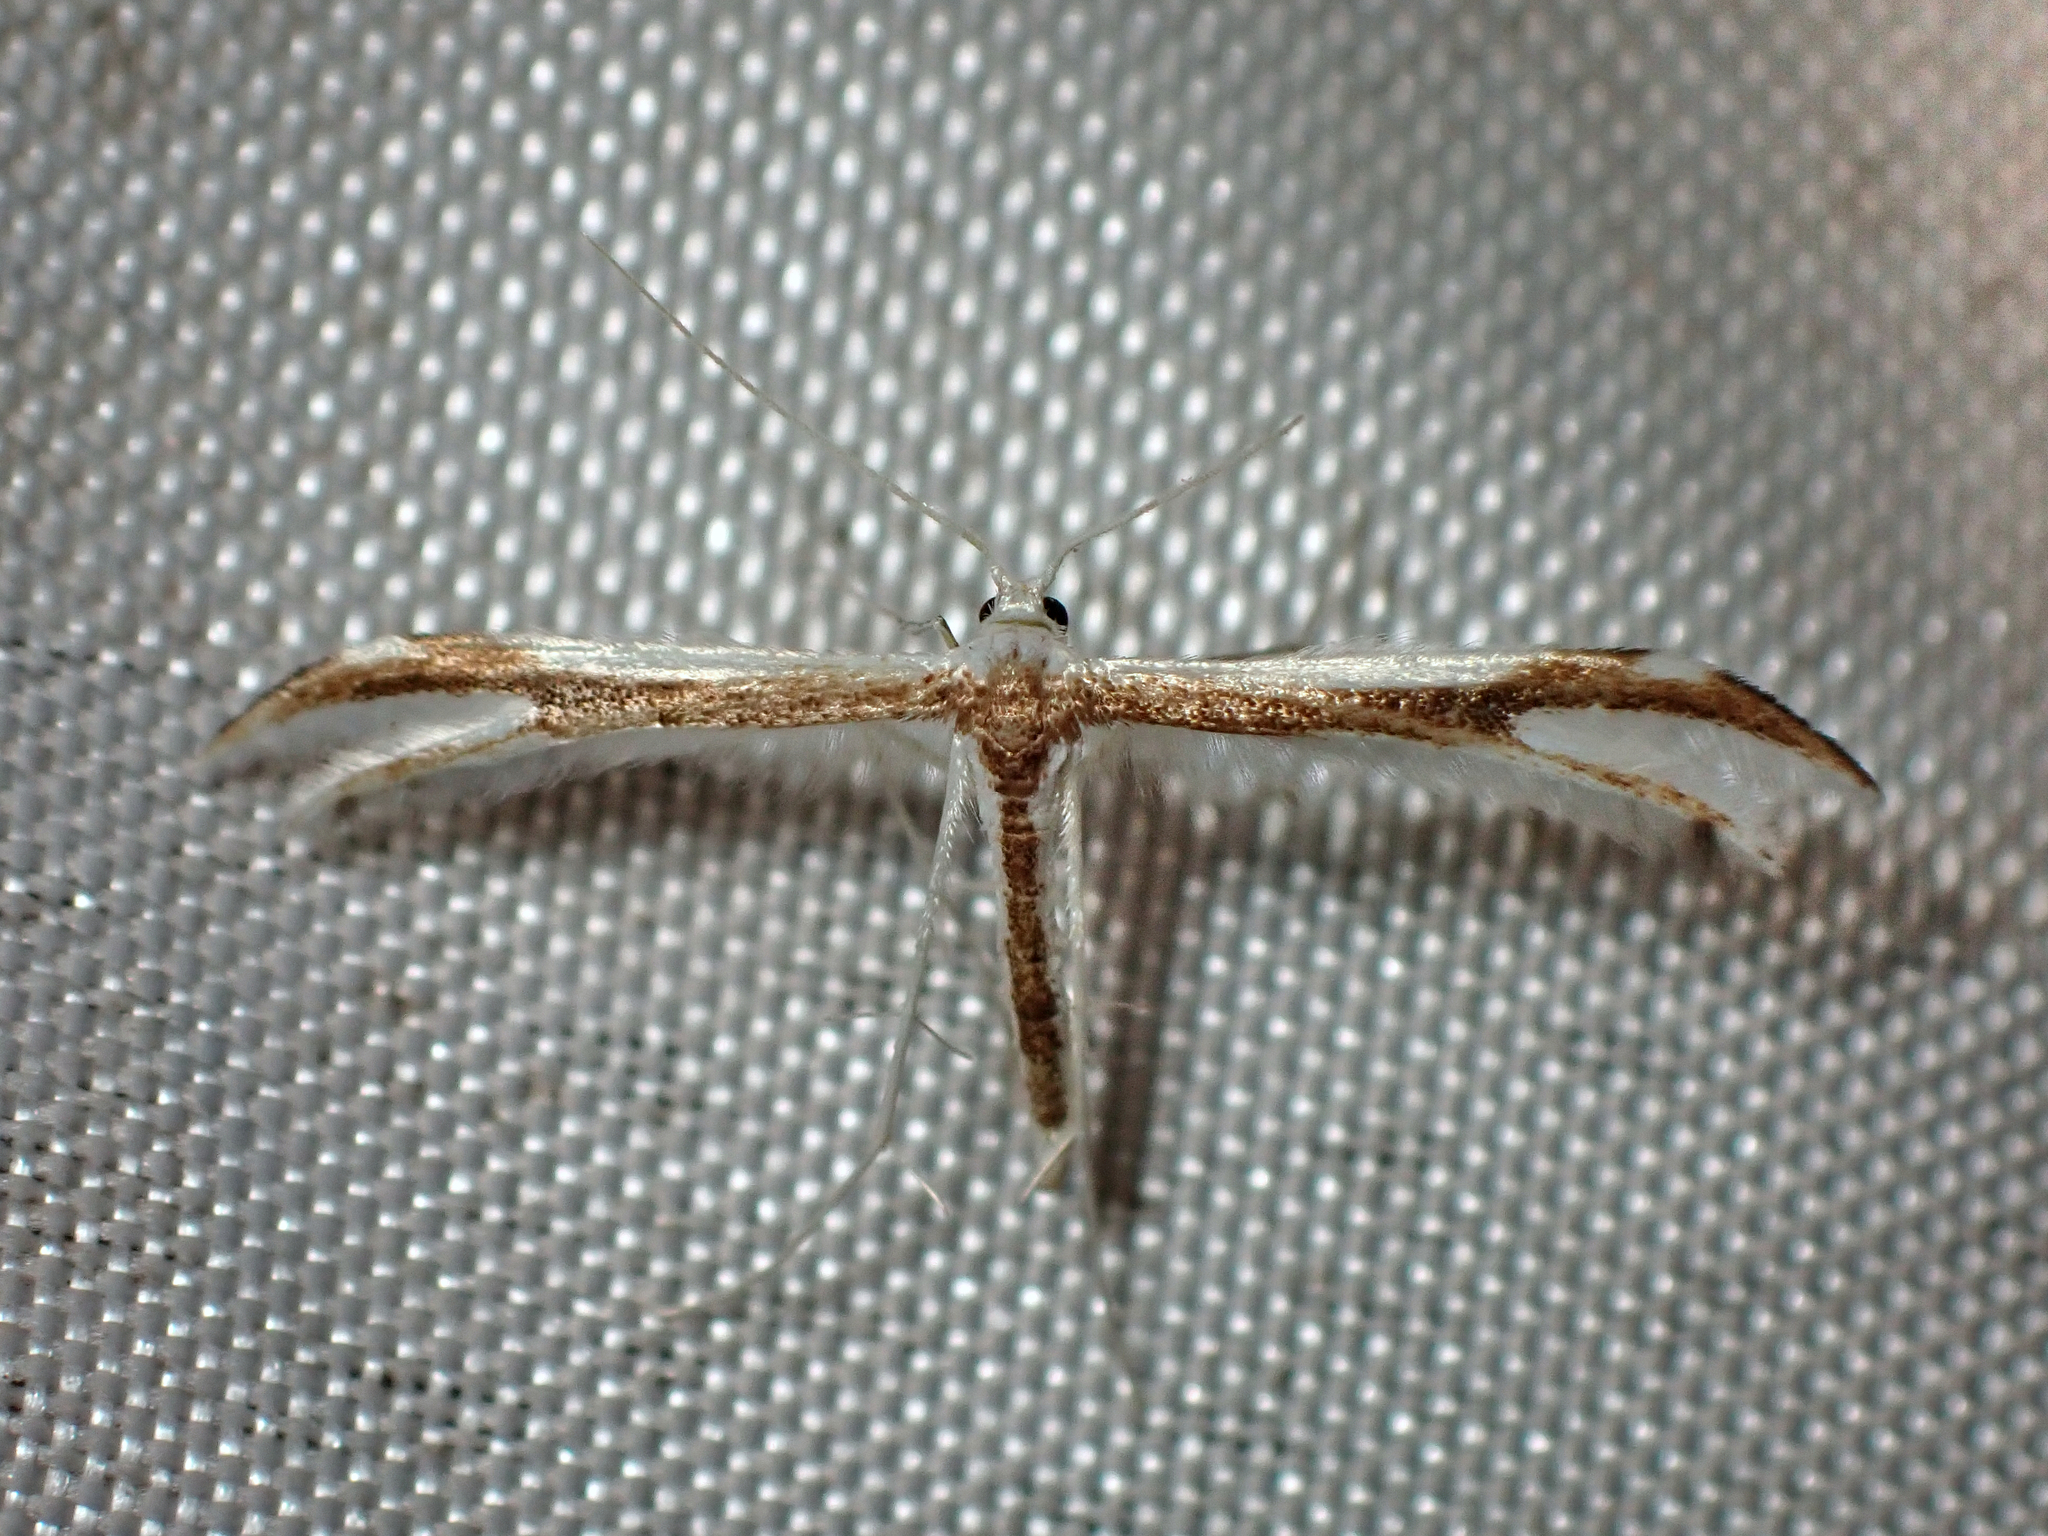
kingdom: Animalia
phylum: Arthropoda
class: Insecta
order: Lepidoptera
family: Pterophoridae
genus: Pterophorus
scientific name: Pterophorus furcatalis
